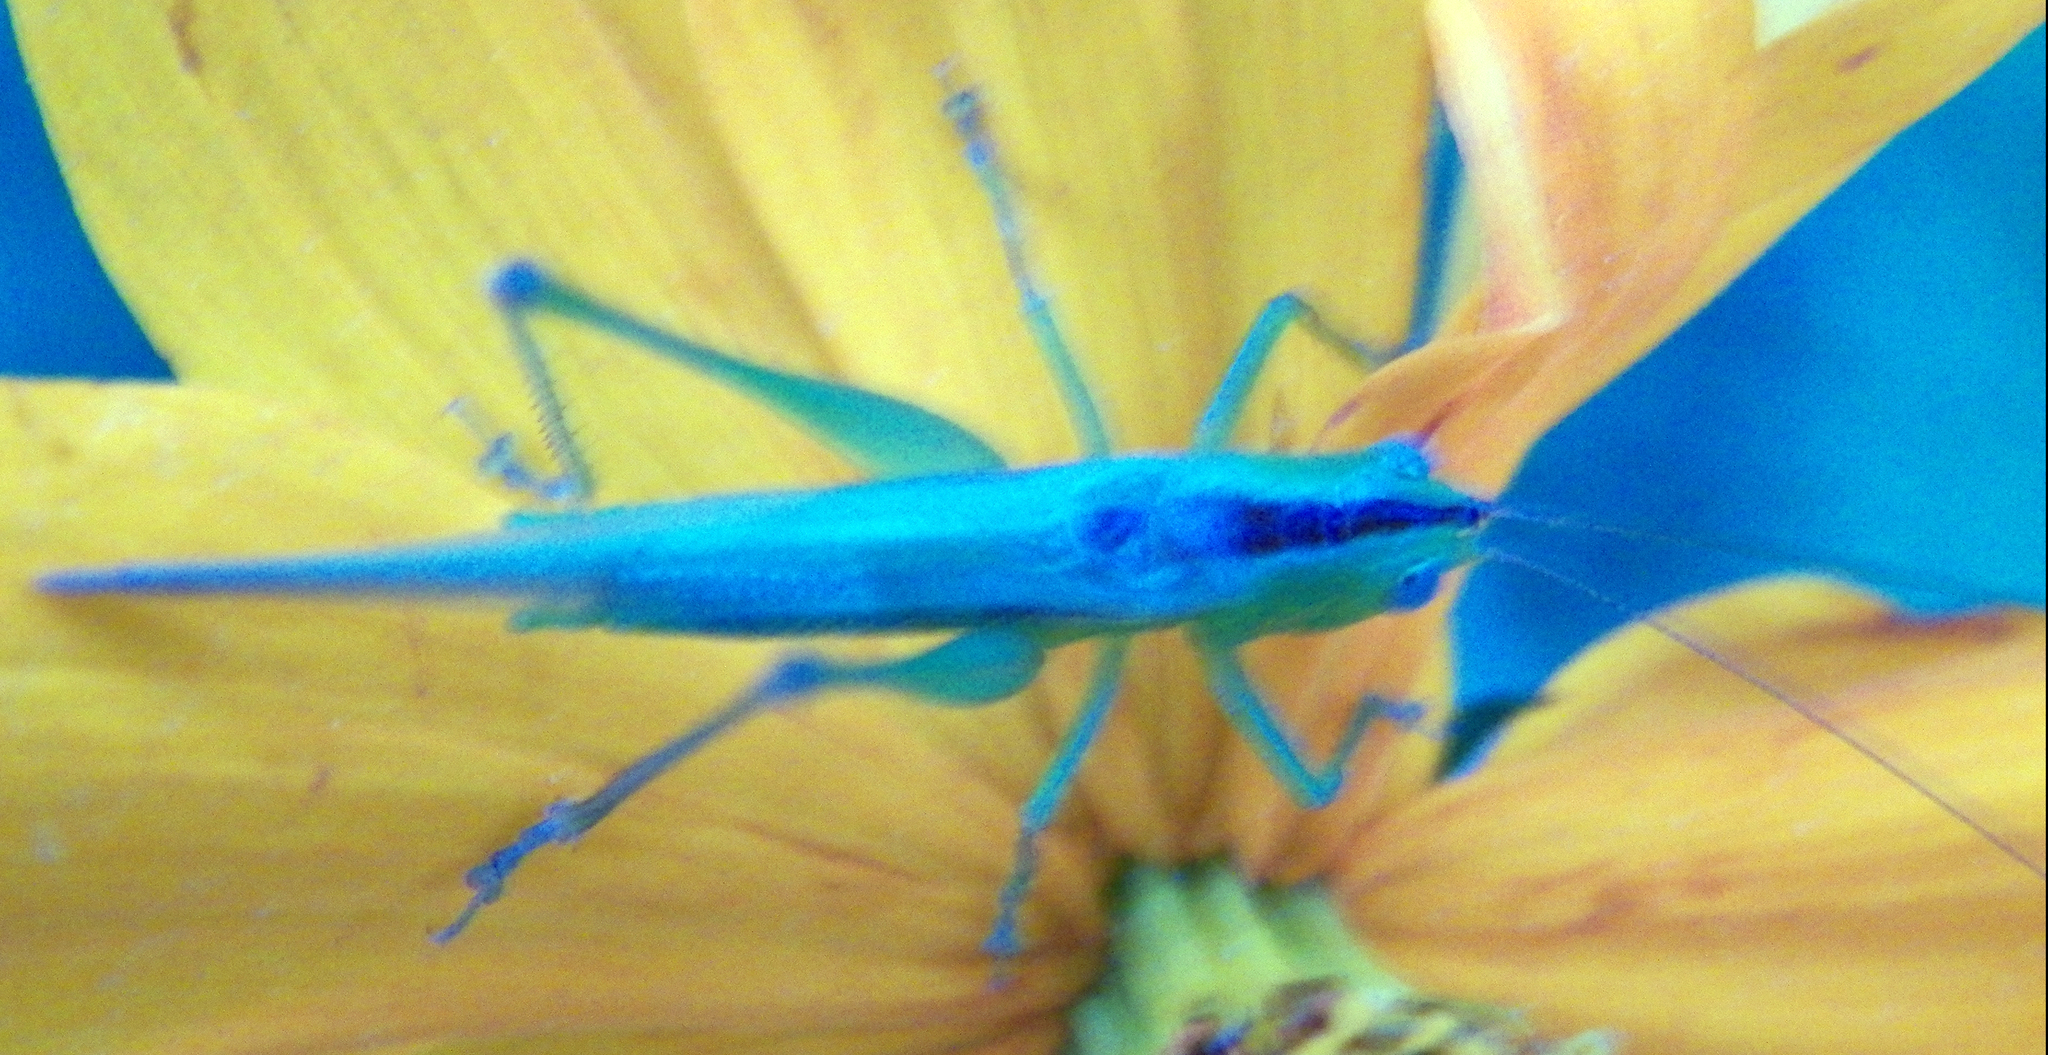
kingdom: Animalia
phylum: Arthropoda
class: Insecta
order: Orthoptera
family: Tettigoniidae
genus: Conocephalus
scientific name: Conocephalus fasciatus
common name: Slender meadow katydid
